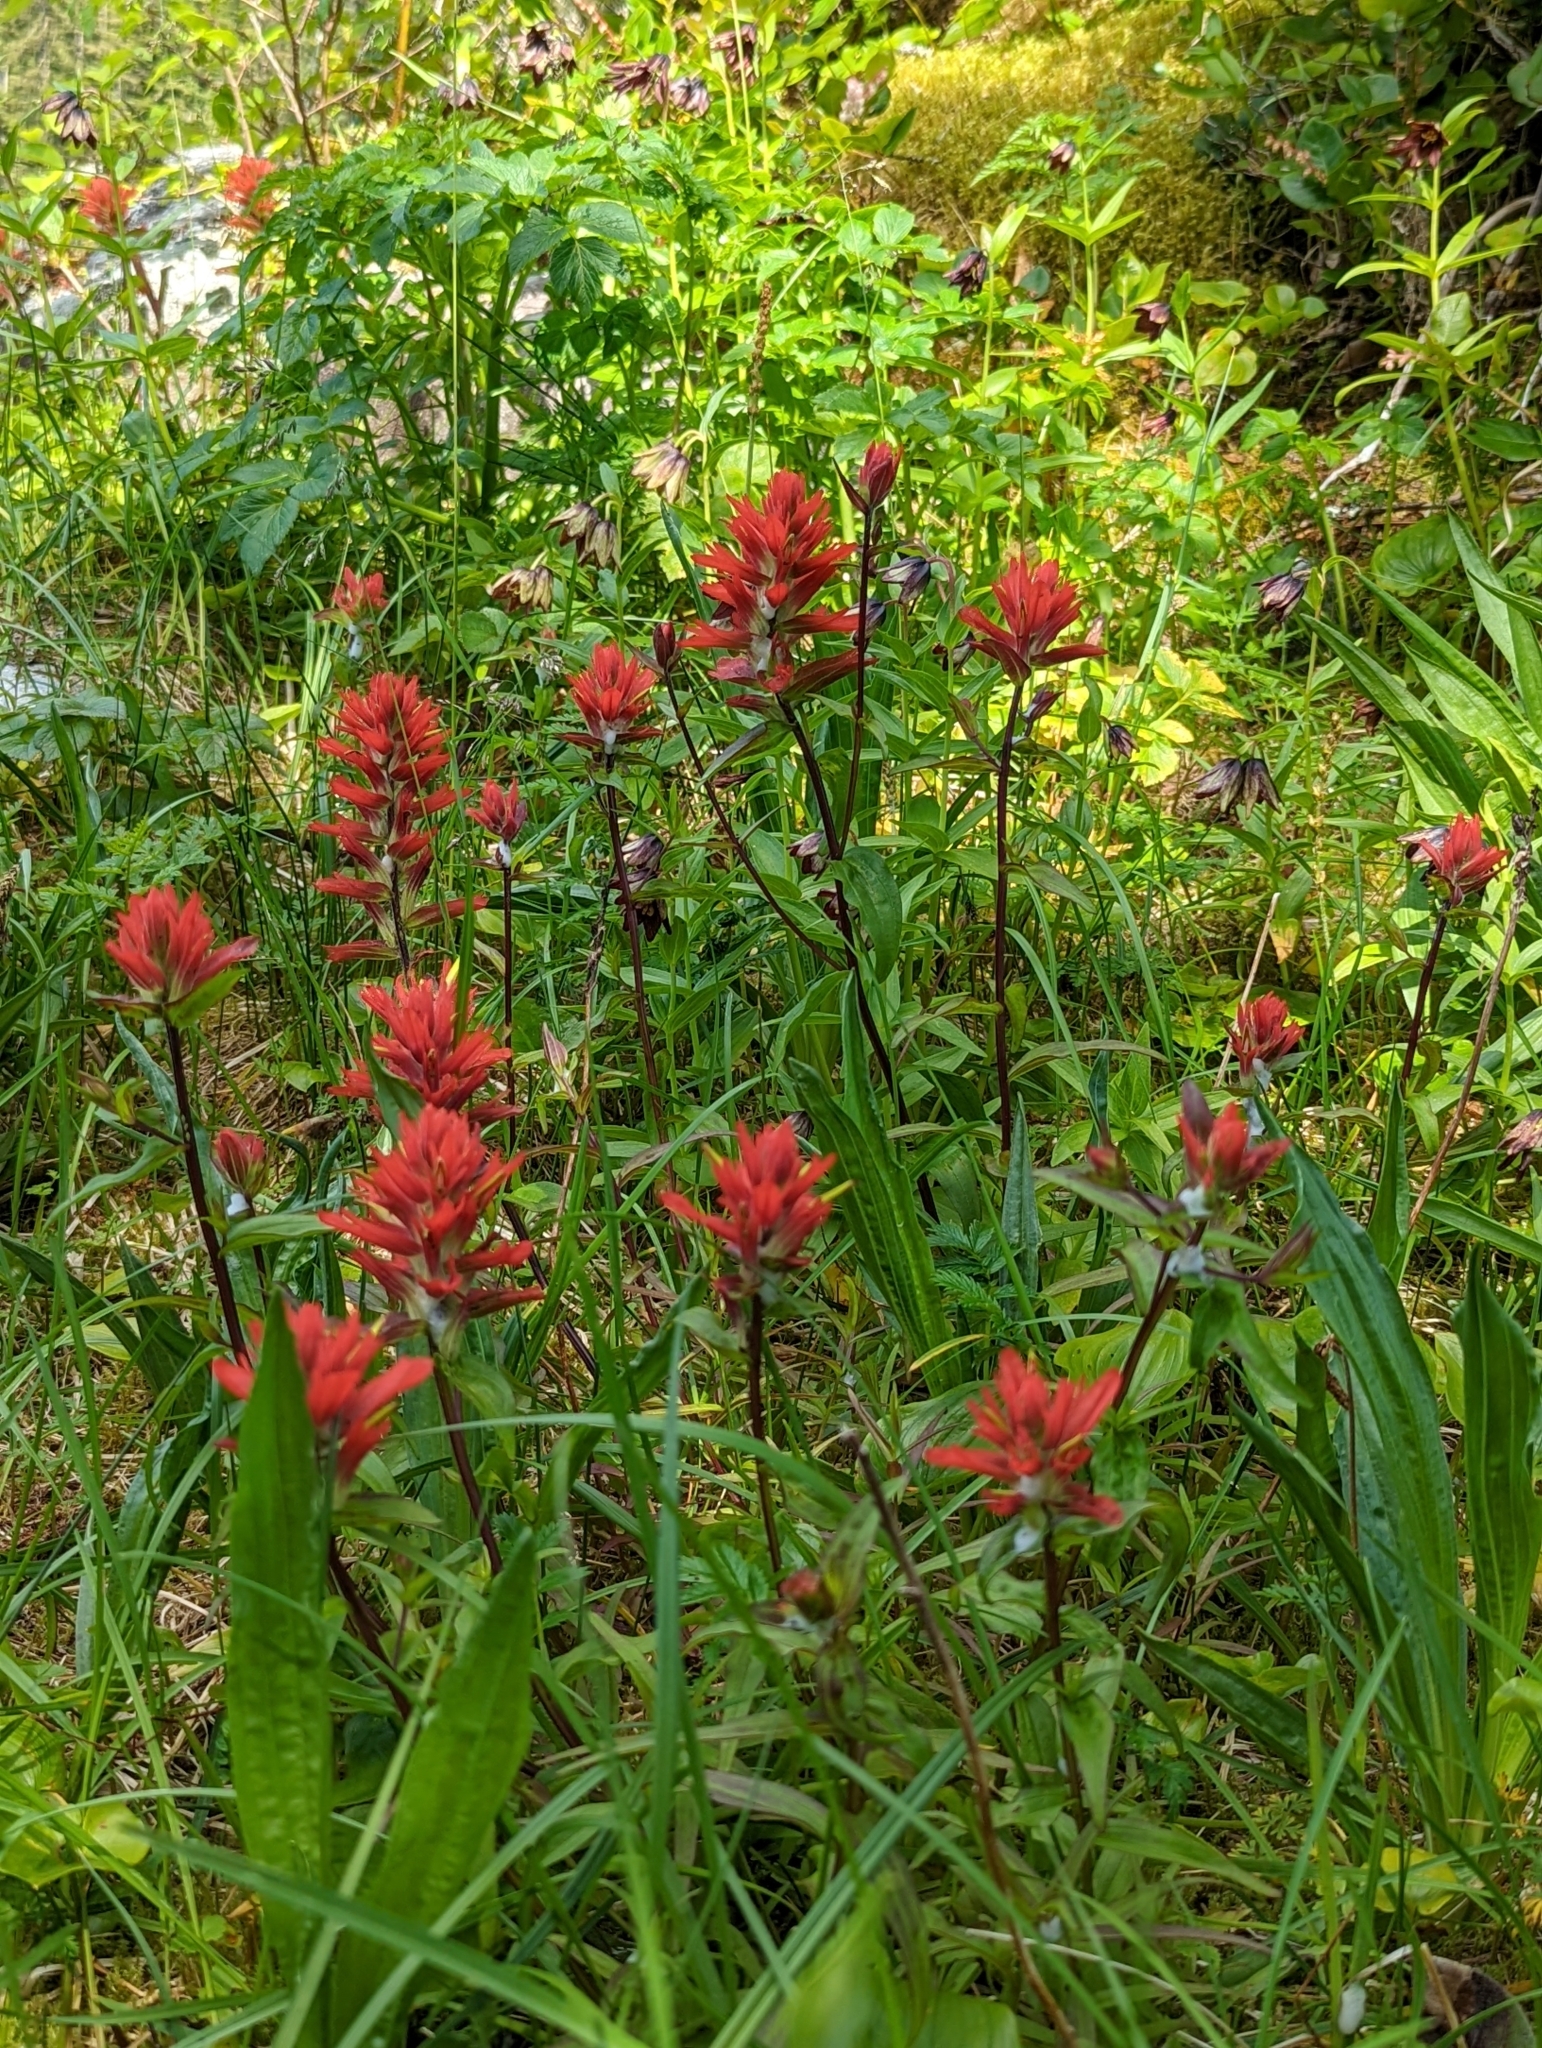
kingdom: Plantae
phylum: Tracheophyta
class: Magnoliopsida
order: Lamiales
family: Orobanchaceae
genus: Castilleja
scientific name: Castilleja miniata
